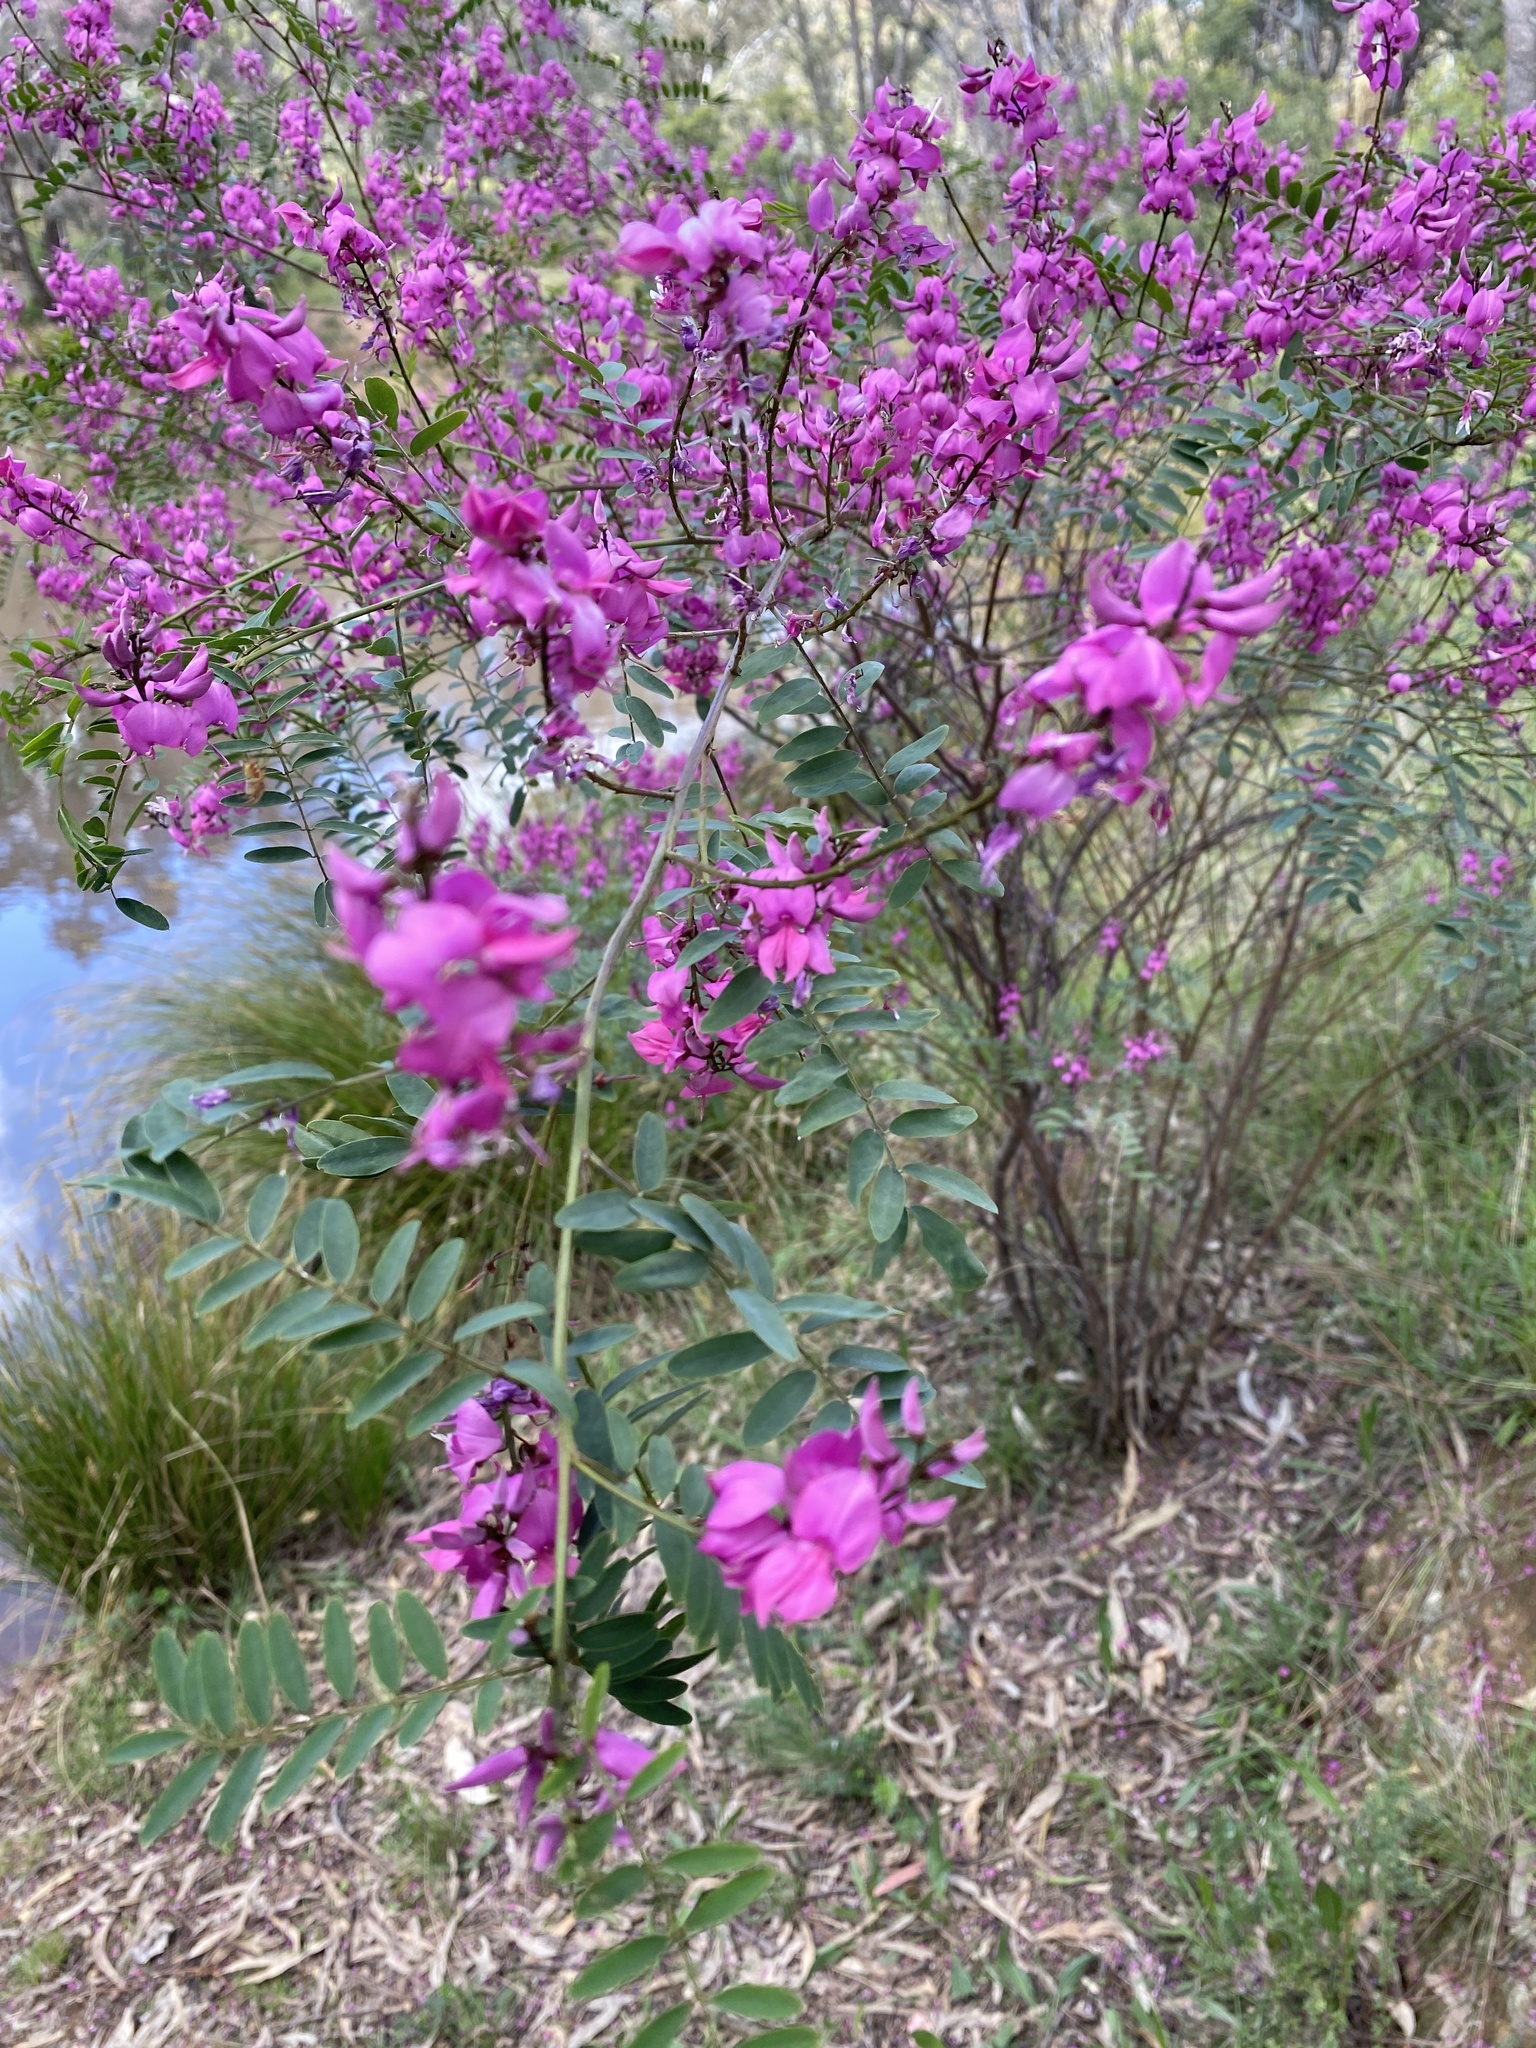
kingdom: Plantae
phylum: Tracheophyta
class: Magnoliopsida
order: Fabales
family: Fabaceae
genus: Indigofera
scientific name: Indigofera australis
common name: Australian indigo
